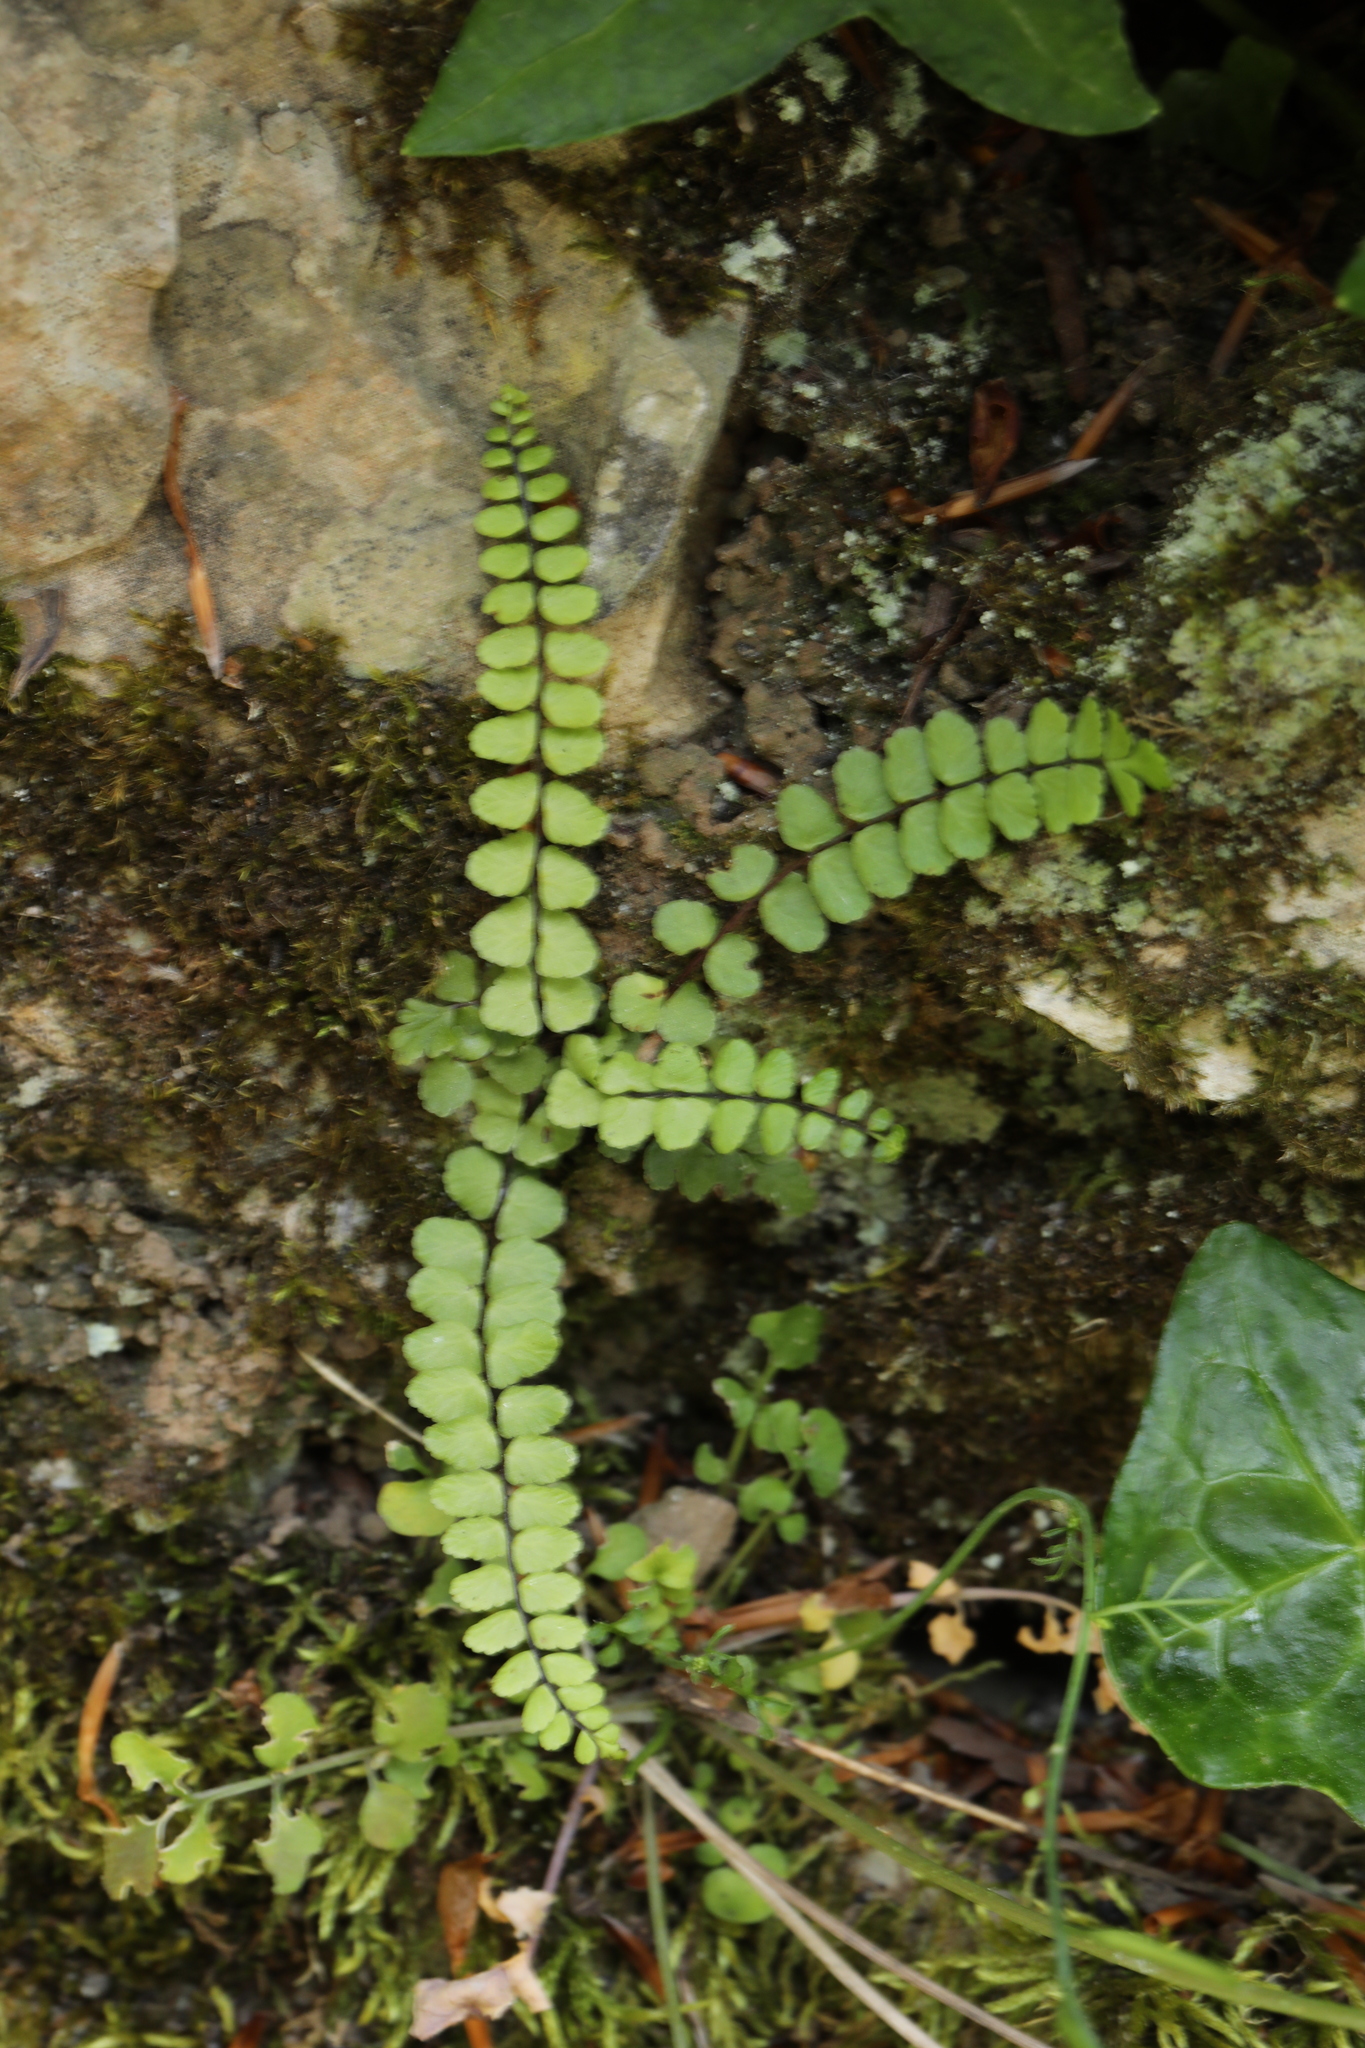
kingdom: Plantae
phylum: Tracheophyta
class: Polypodiopsida
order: Polypodiales
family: Aspleniaceae
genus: Asplenium
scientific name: Asplenium trichomanes
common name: Maidenhair spleenwort
